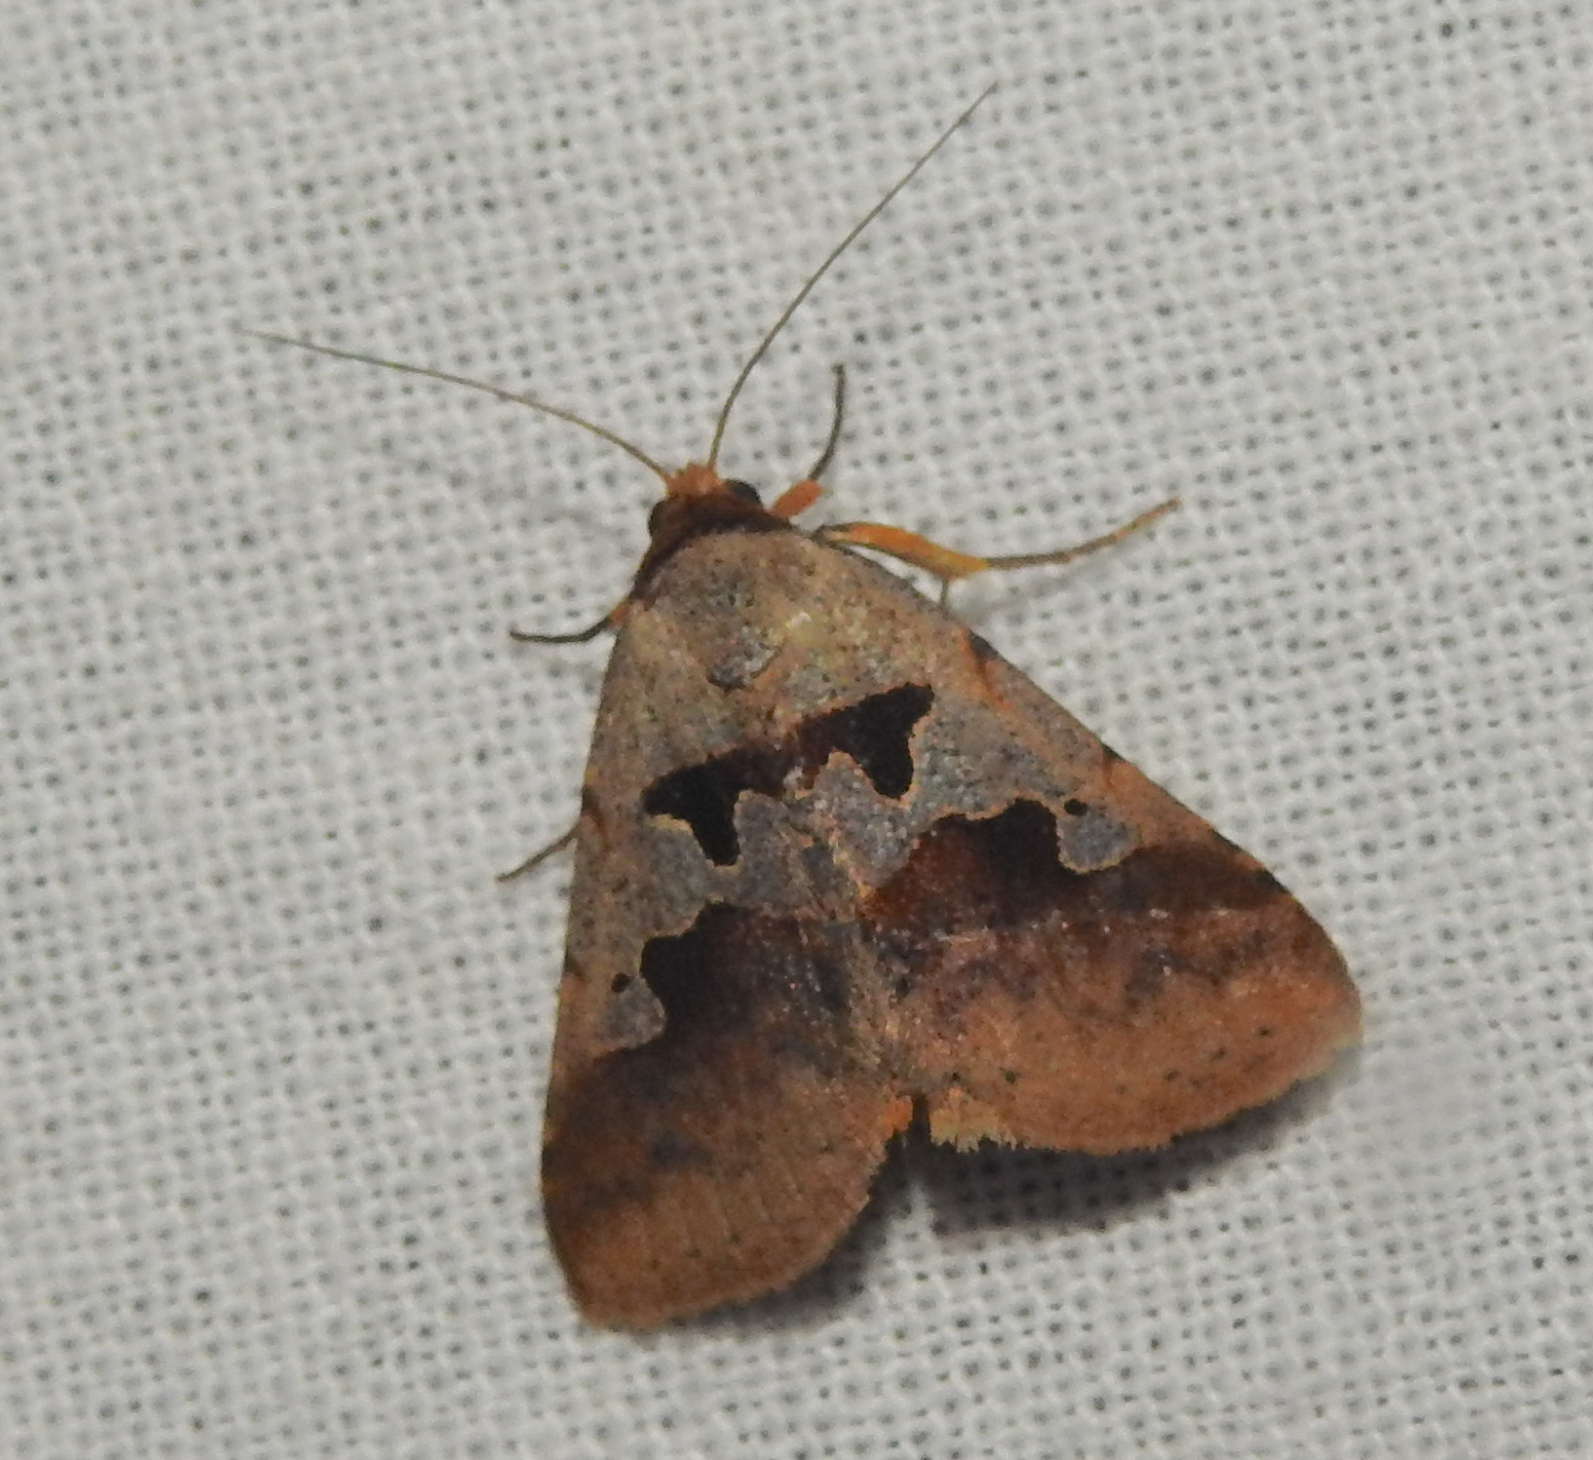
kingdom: Animalia
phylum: Arthropoda
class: Insecta
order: Lepidoptera
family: Erebidae
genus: Crithote
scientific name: Crithote horridipes
